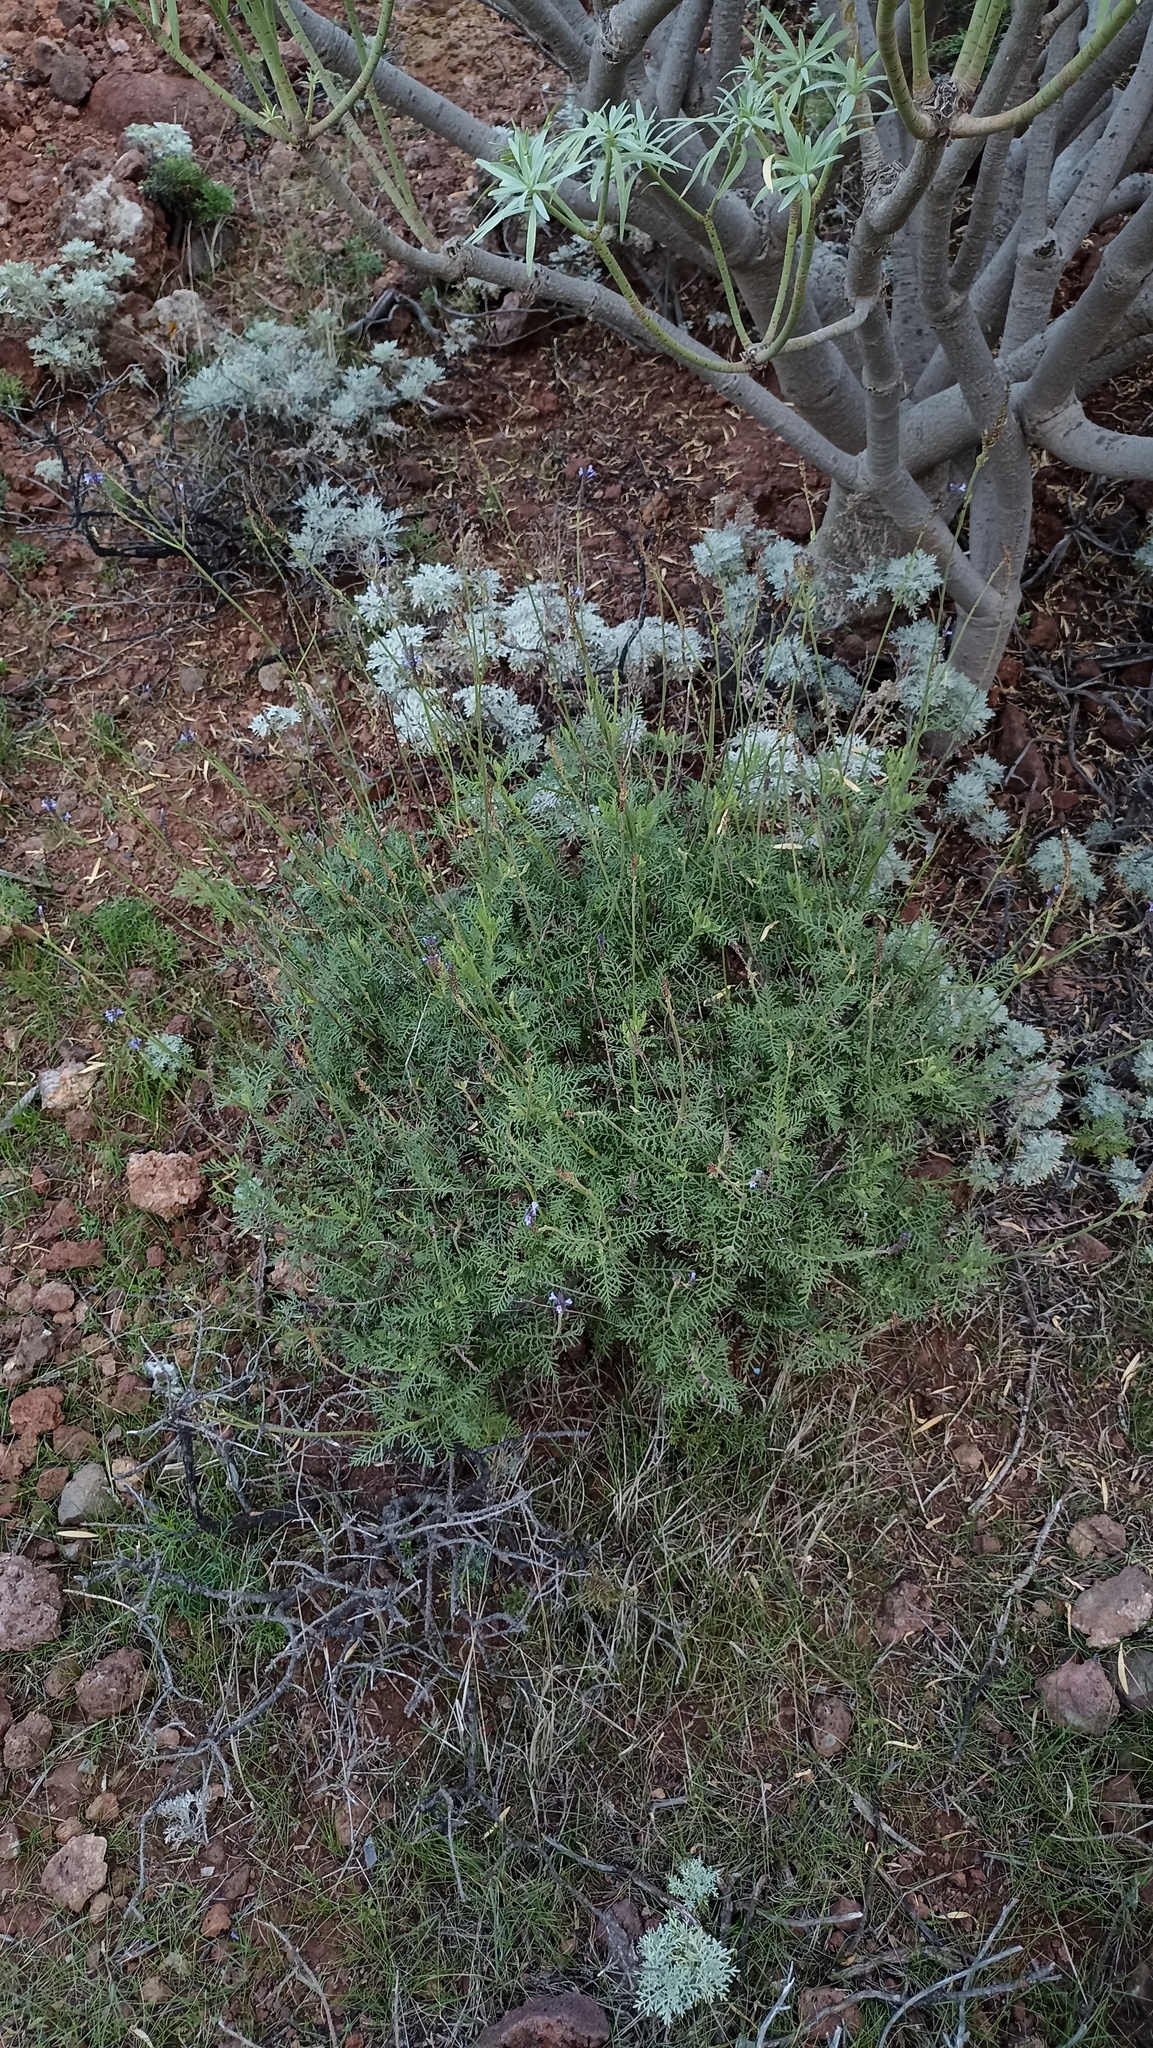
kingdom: Plantae
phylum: Tracheophyta
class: Magnoliopsida
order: Lamiales
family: Lamiaceae
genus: Lavandula
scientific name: Lavandula canariensis
